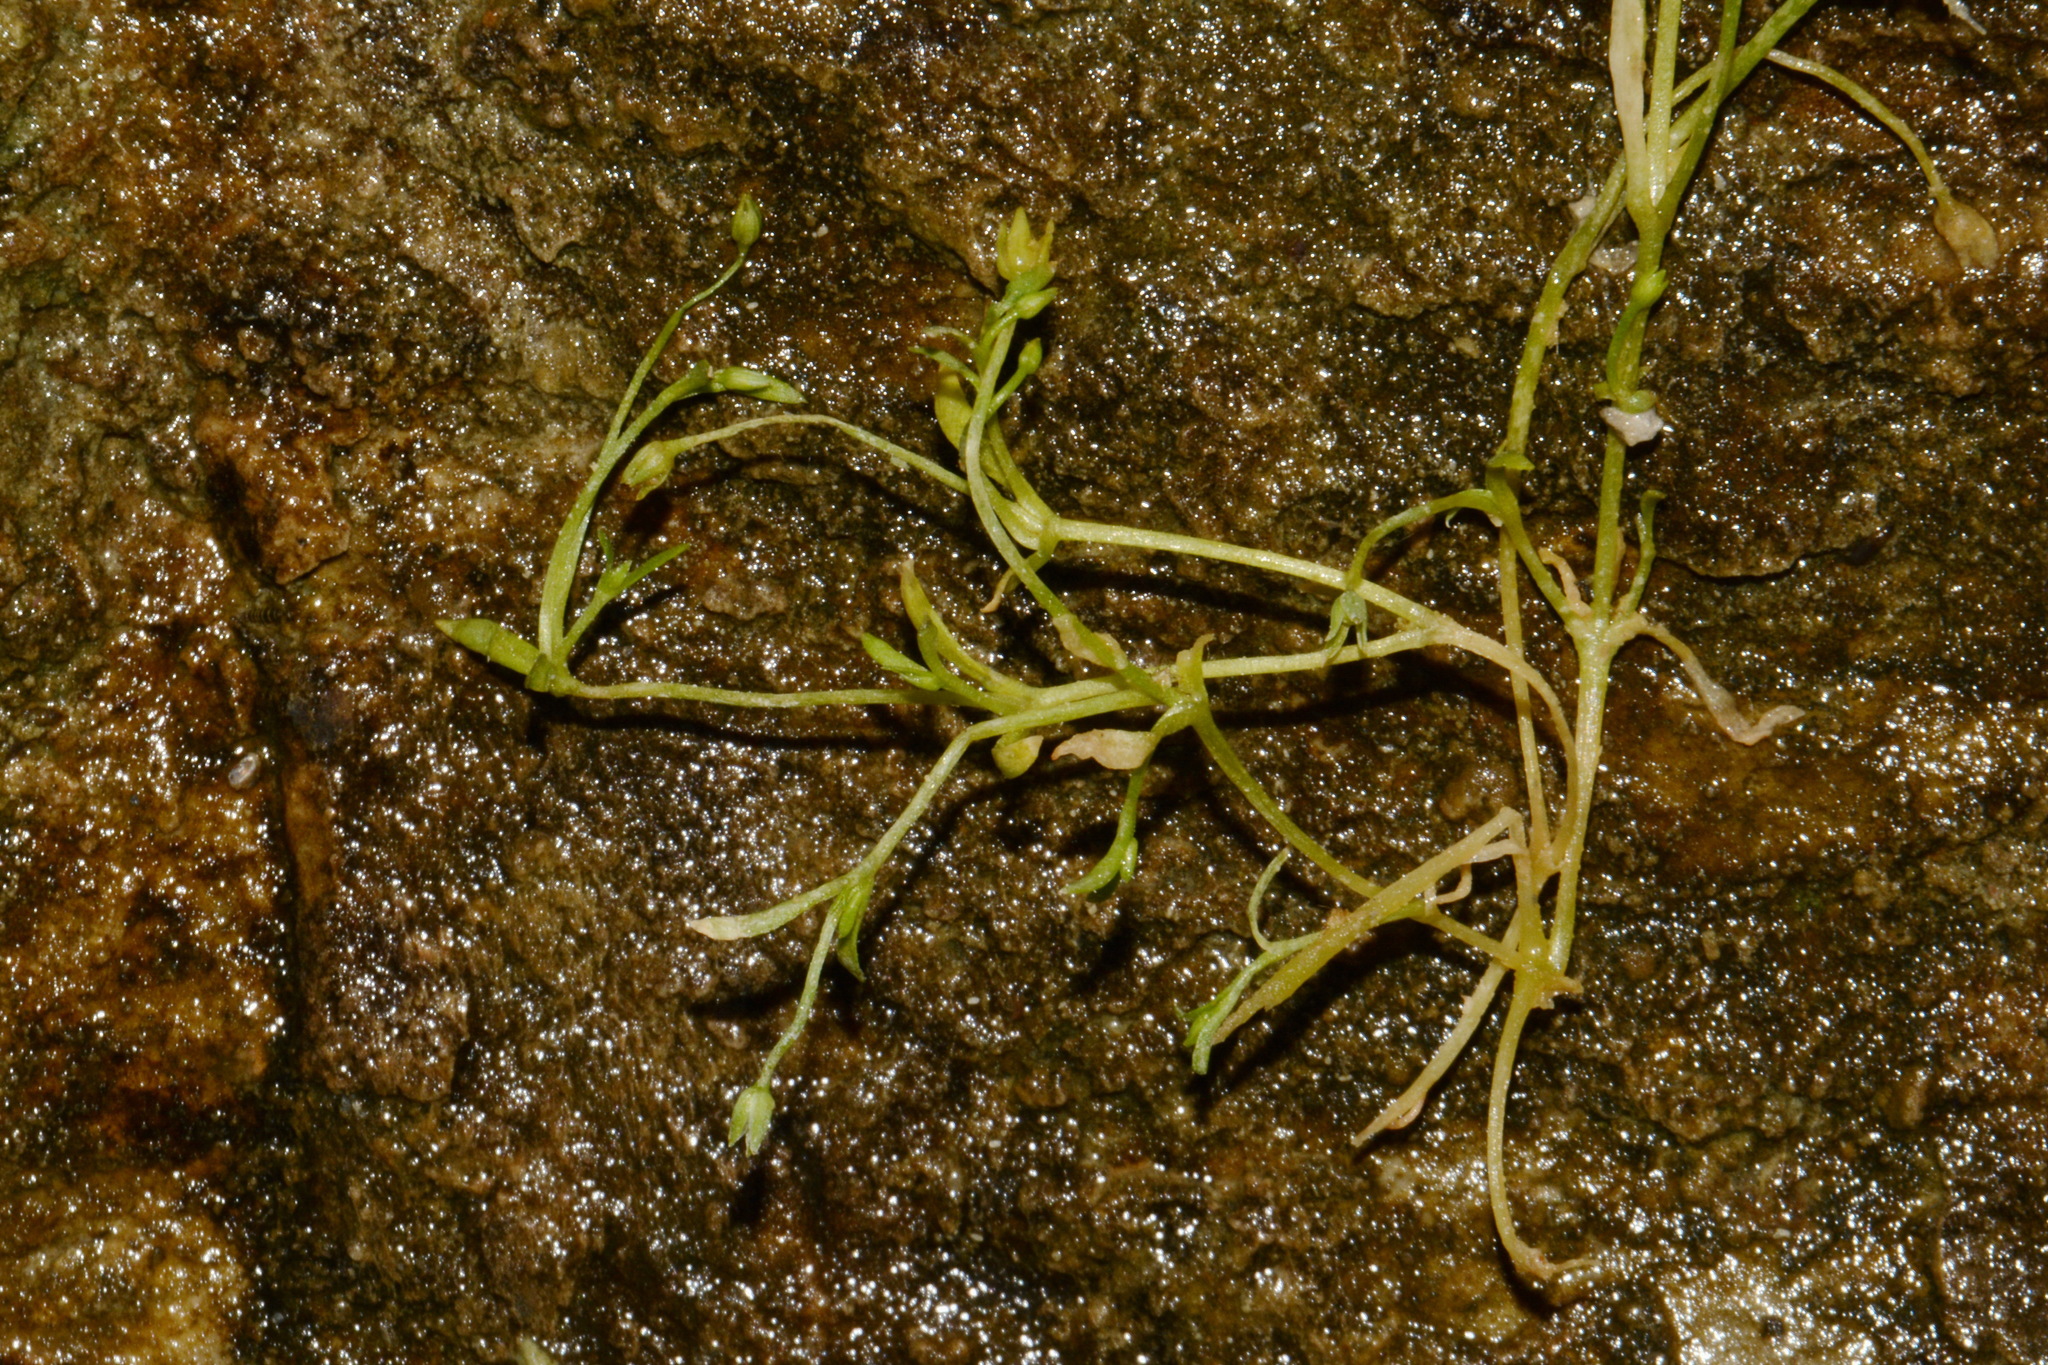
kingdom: Plantae
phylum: Tracheophyta
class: Magnoliopsida
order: Caryophyllales
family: Caryophyllaceae
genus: Sabulina
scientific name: Sabulina fontinalis
